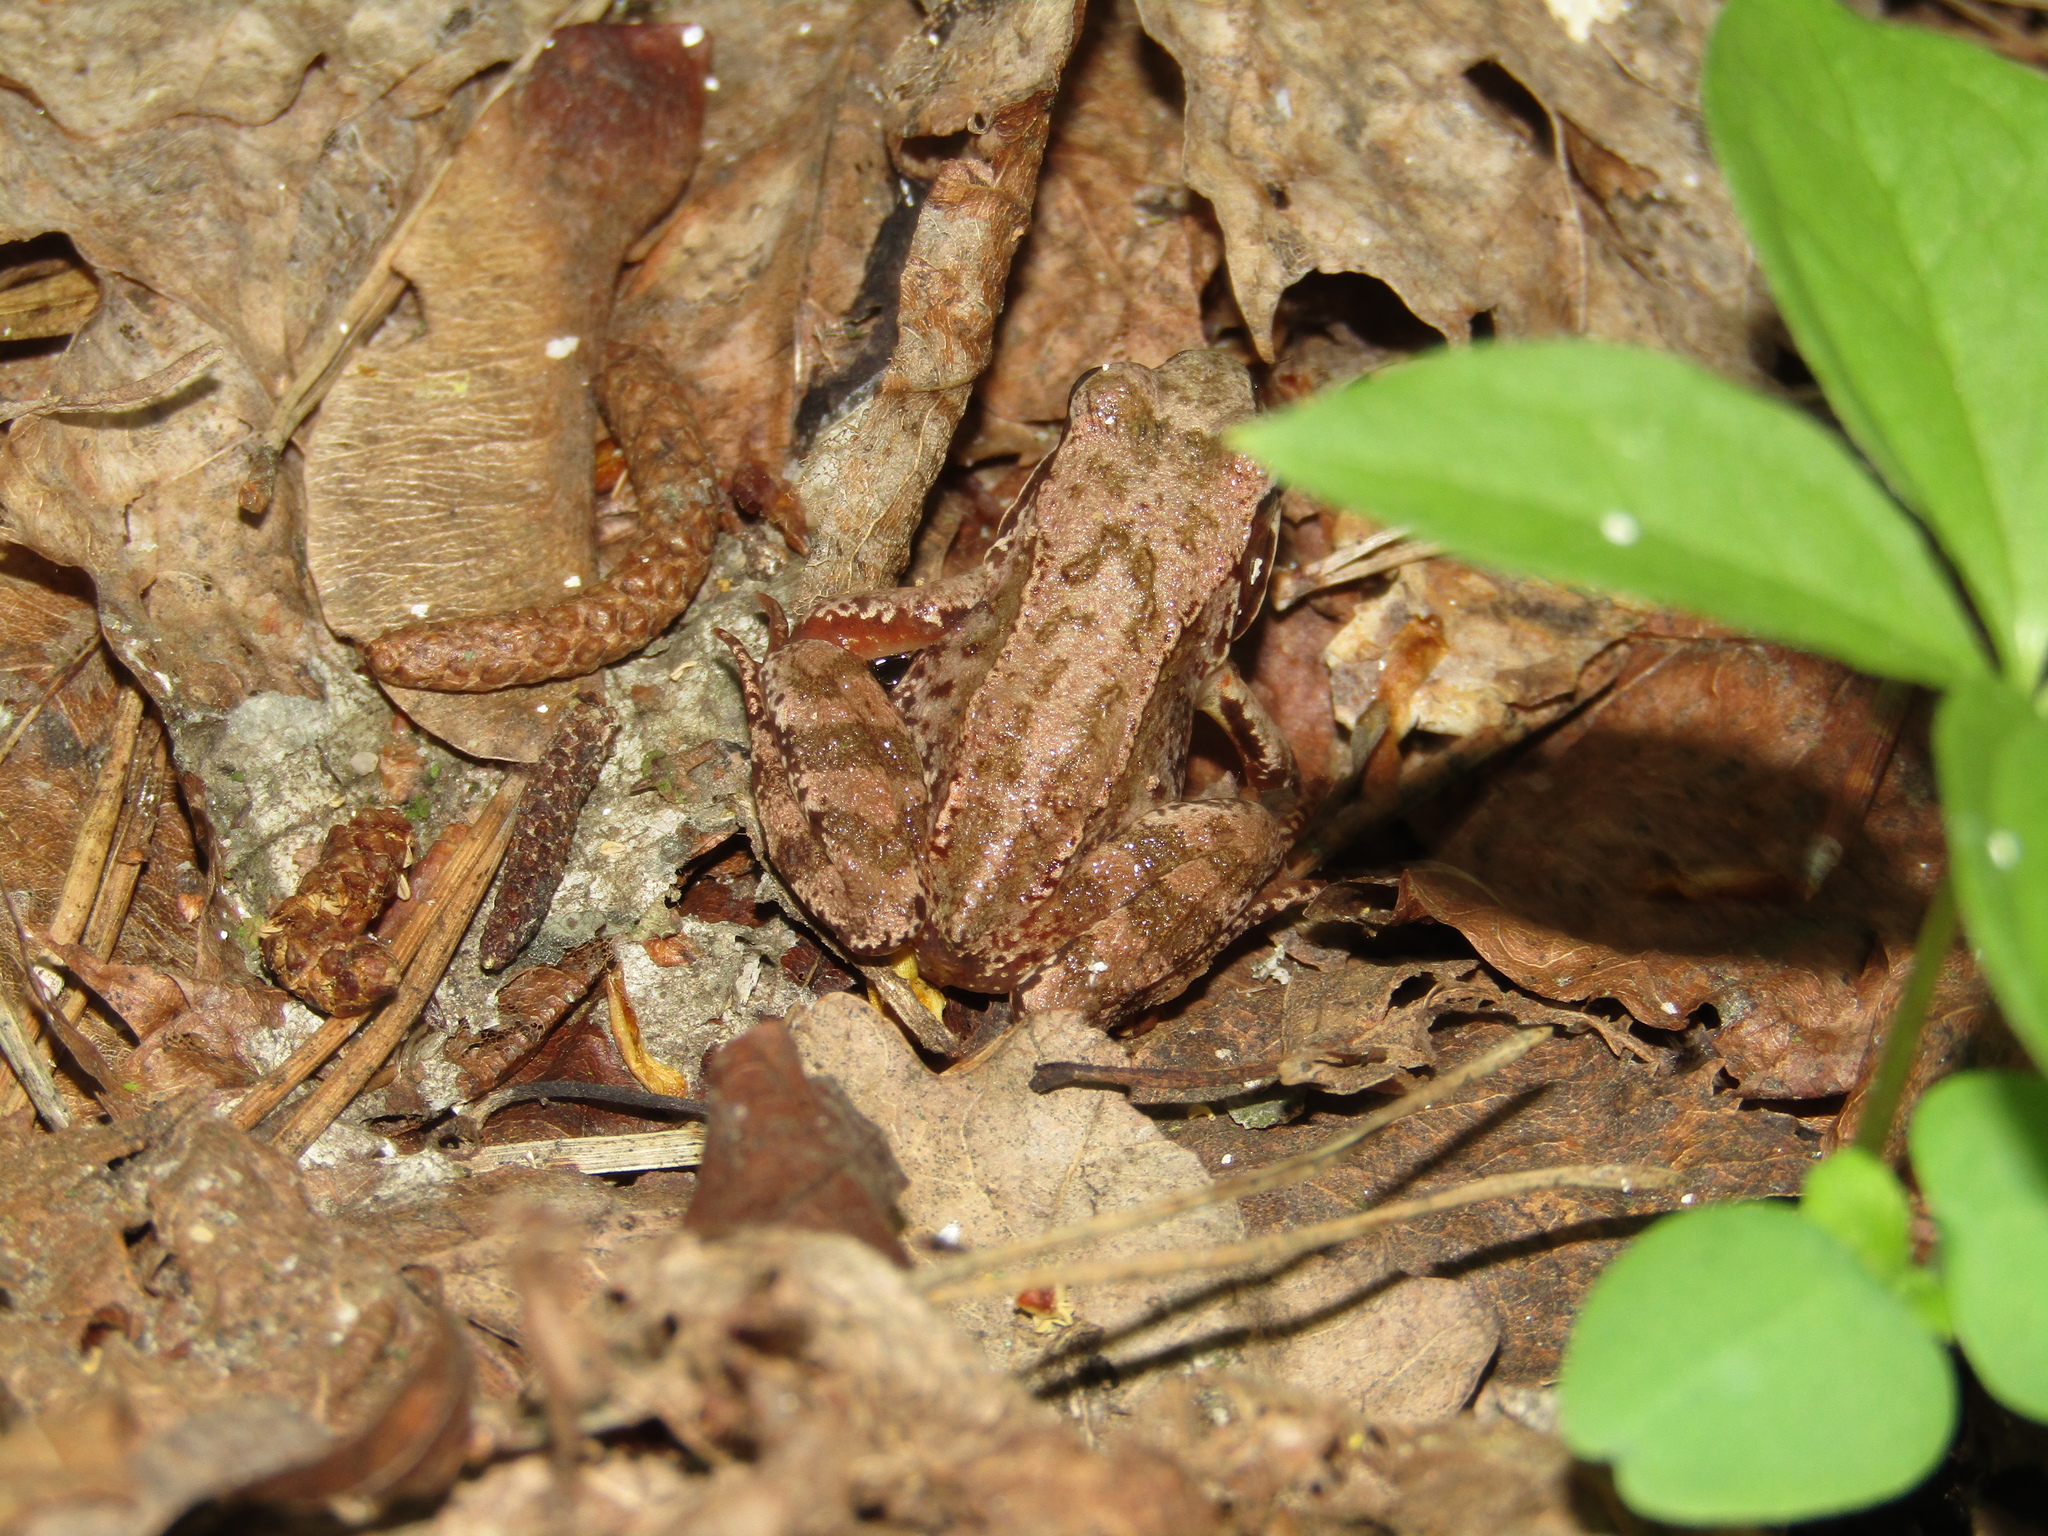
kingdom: Animalia
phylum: Chordata
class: Amphibia
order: Anura
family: Ranidae
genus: Rana
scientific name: Rana temporaria
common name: Common frog
